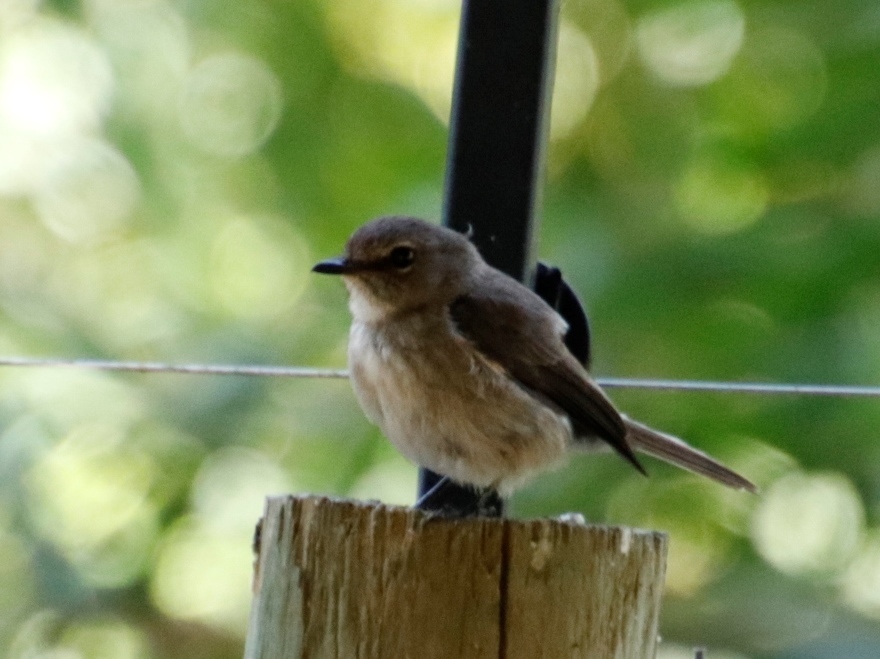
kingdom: Animalia
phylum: Chordata
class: Aves
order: Passeriformes
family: Muscicapidae
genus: Muscicapa
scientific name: Muscicapa adusta
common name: African dusky flycatcher
